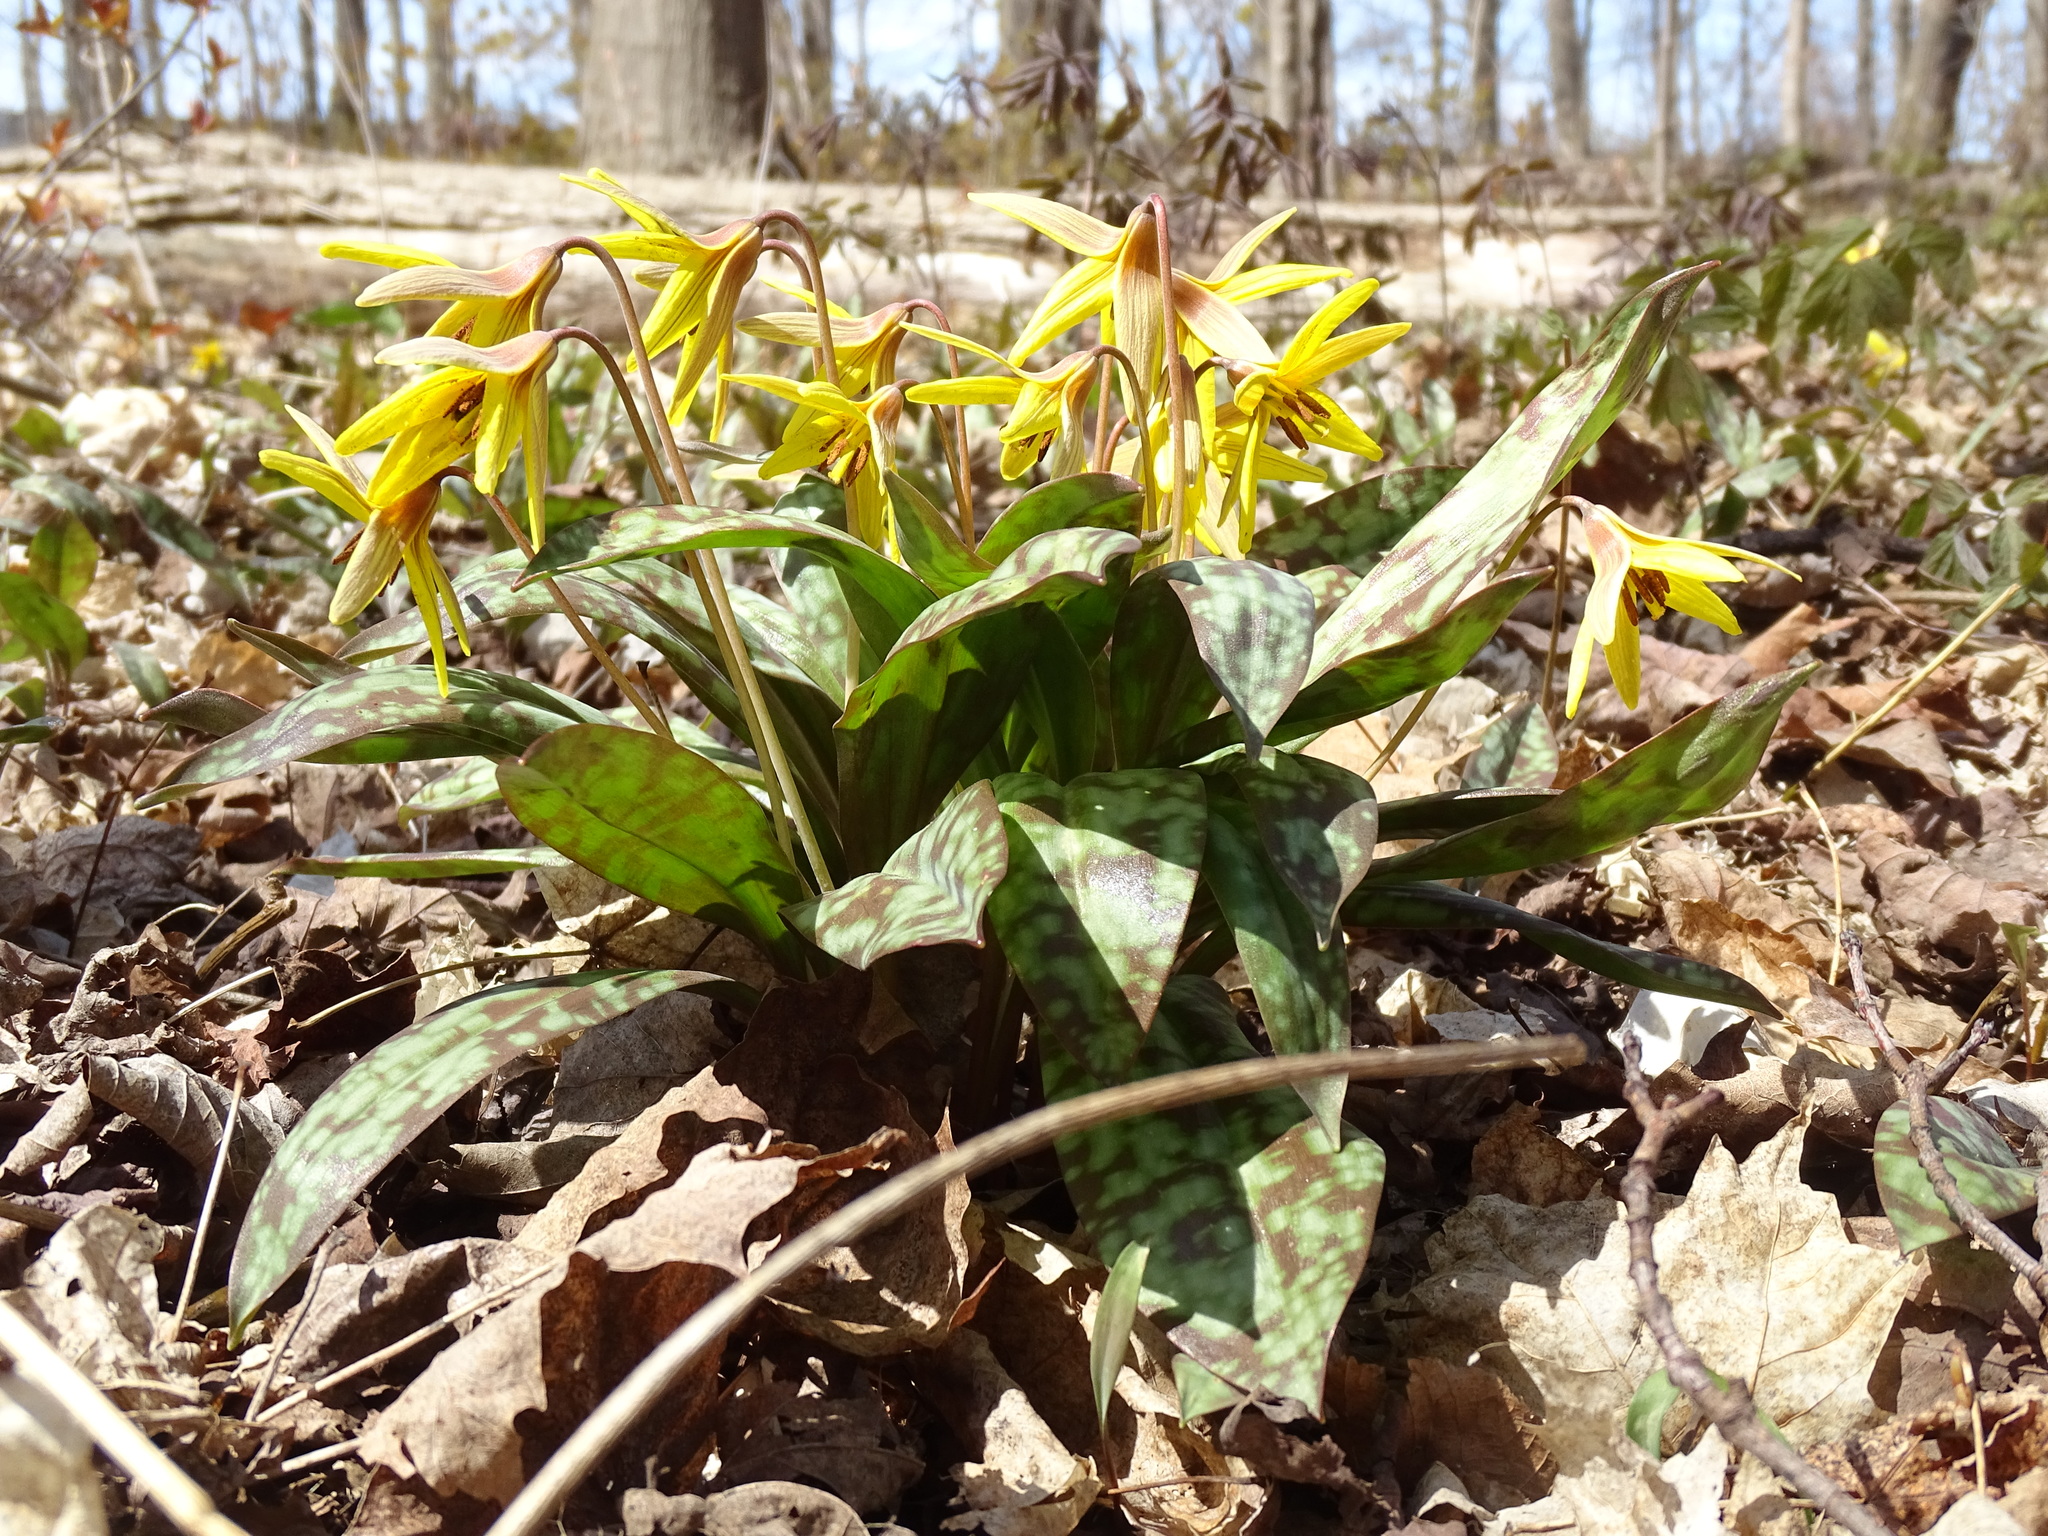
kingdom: Plantae
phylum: Tracheophyta
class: Liliopsida
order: Liliales
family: Liliaceae
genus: Erythronium
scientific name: Erythronium americanum
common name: Yellow adder's-tongue
